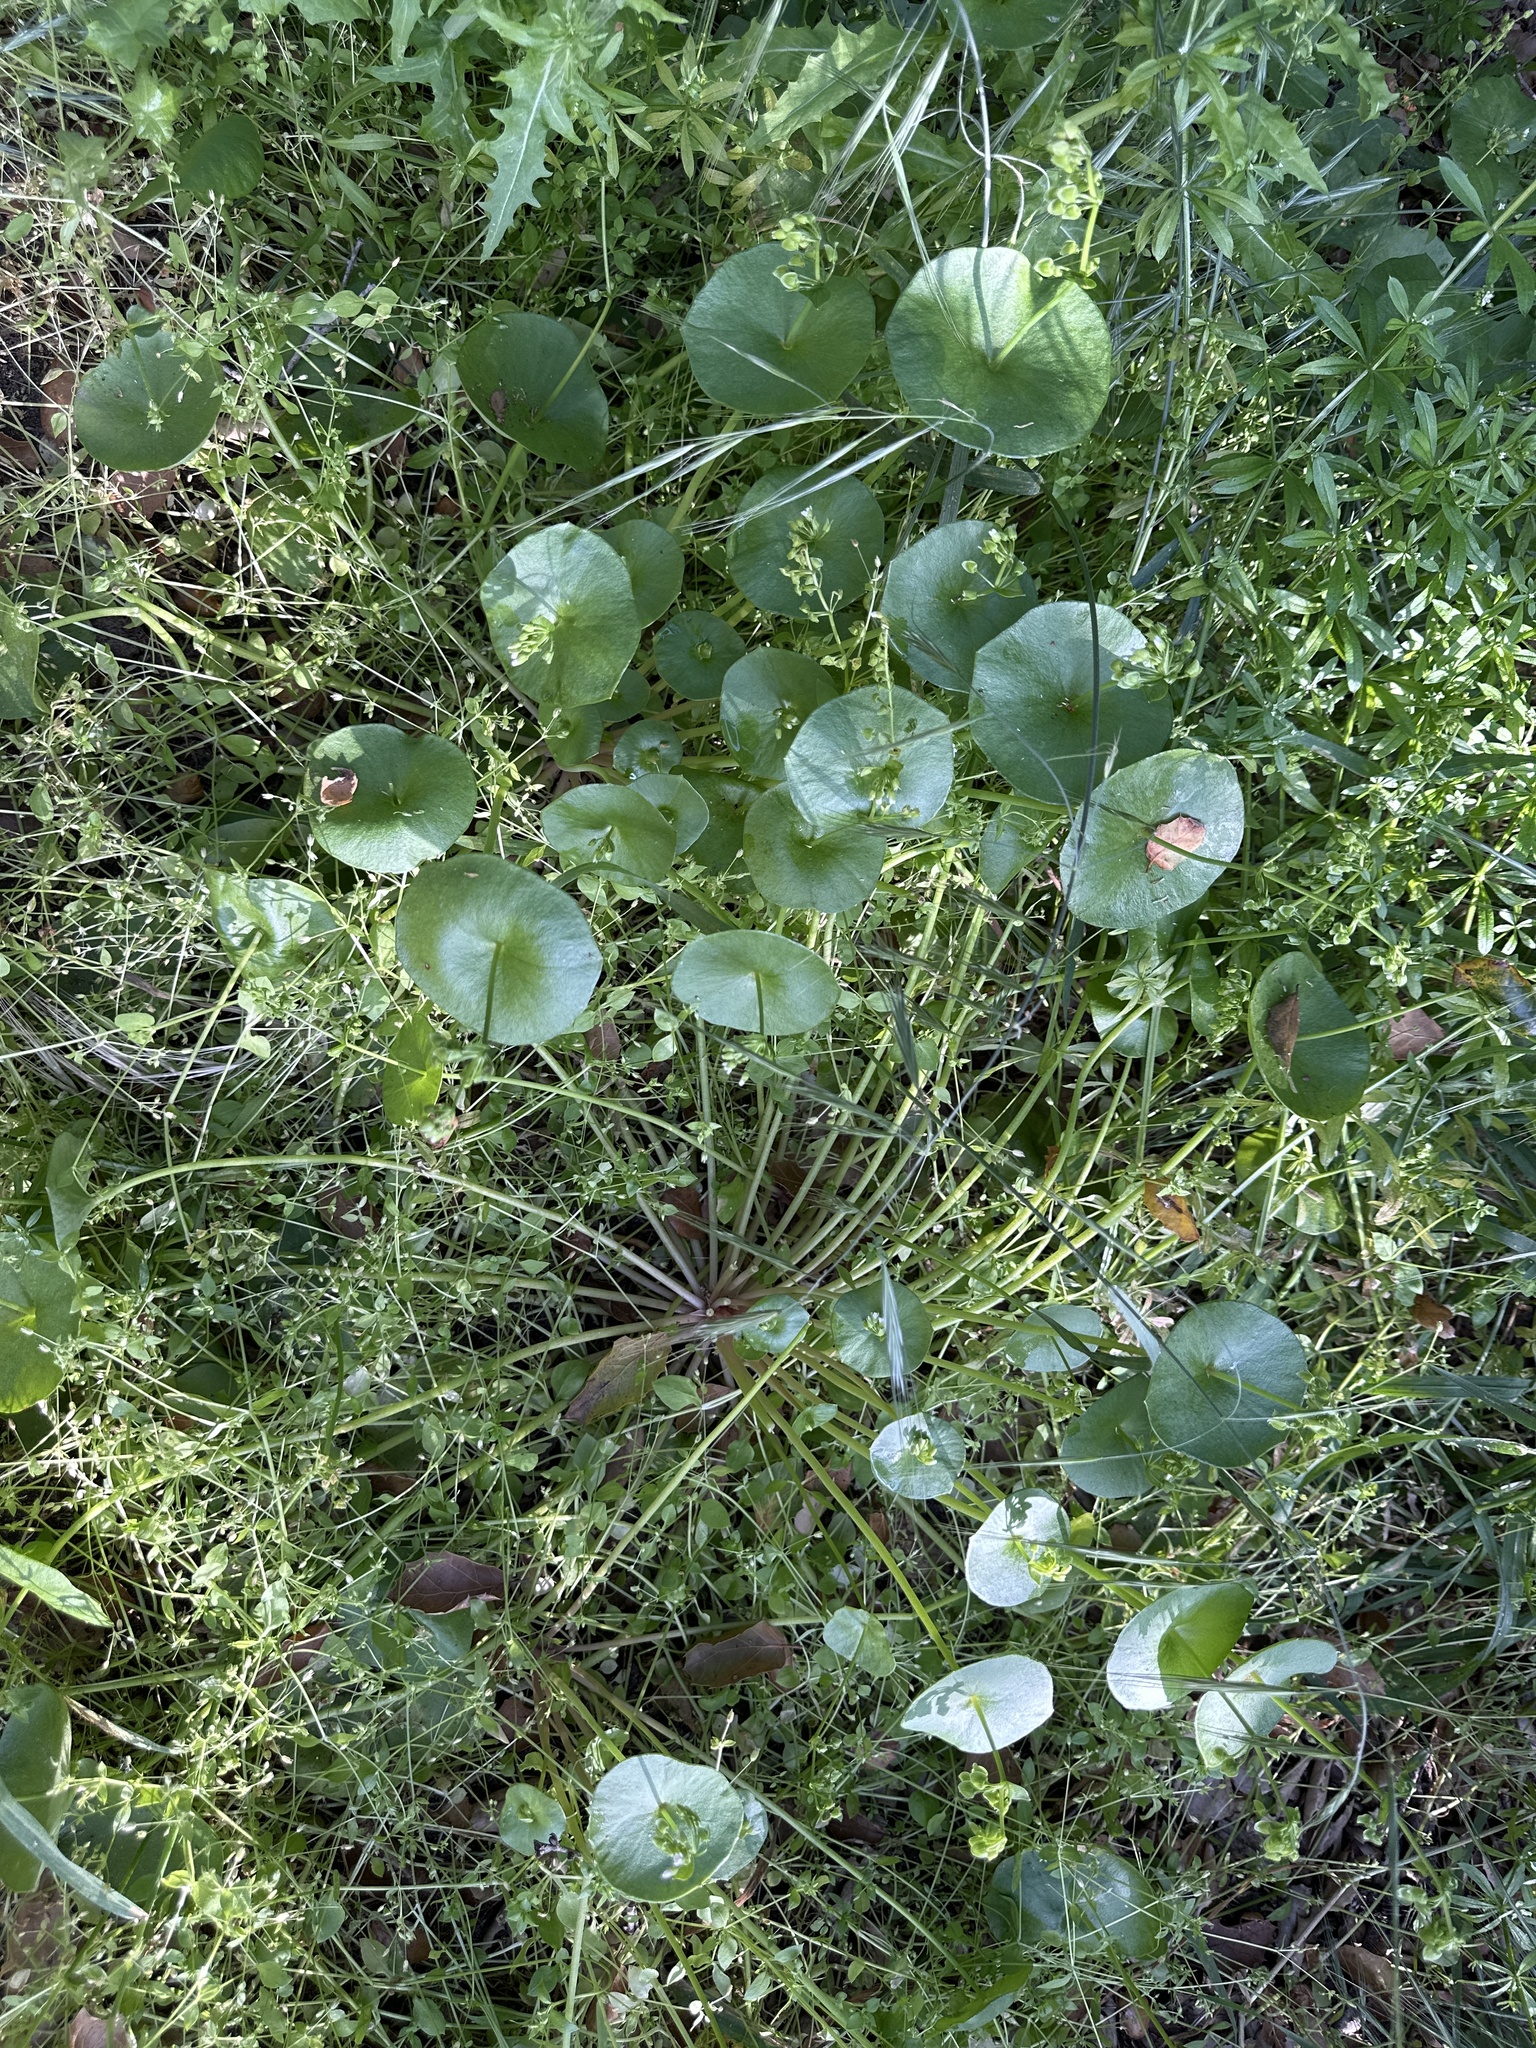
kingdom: Plantae
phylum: Tracheophyta
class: Magnoliopsida
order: Caryophyllales
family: Montiaceae
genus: Claytonia
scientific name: Claytonia perfoliata
